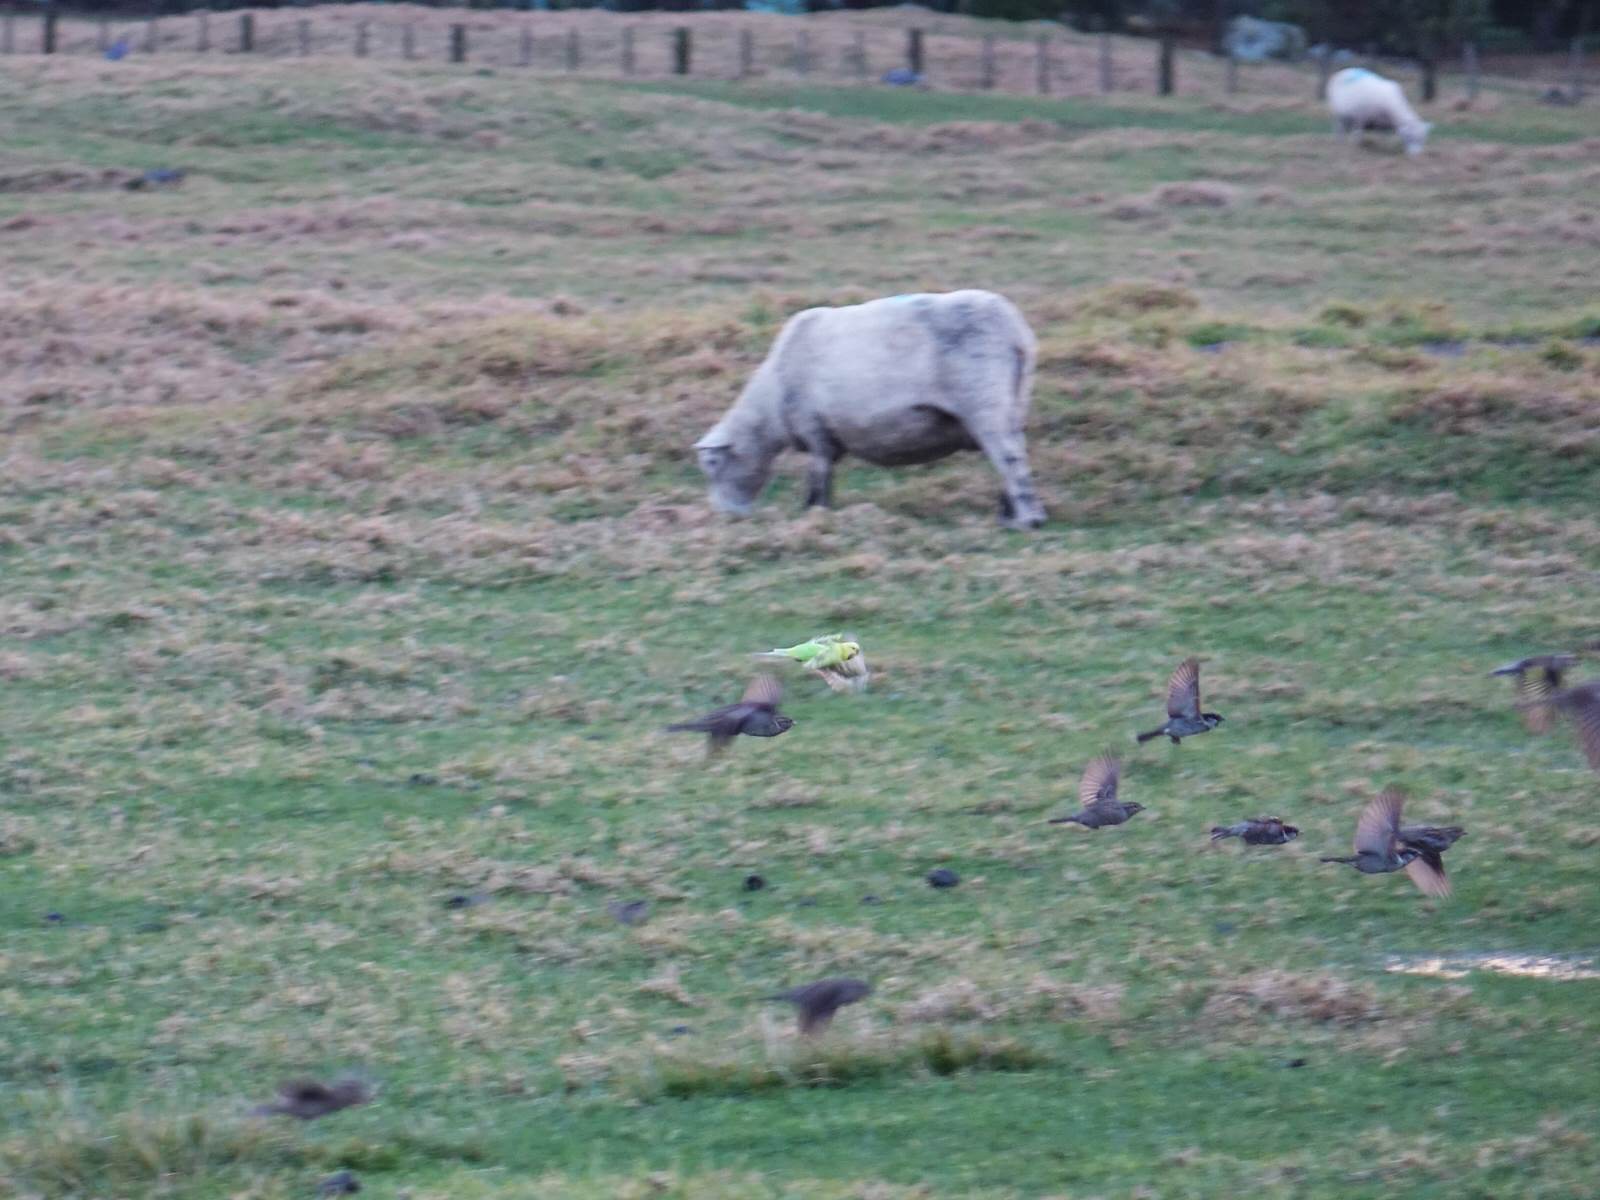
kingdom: Animalia
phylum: Chordata
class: Aves
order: Psittaciformes
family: Psittacidae
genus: Melopsittacus
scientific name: Melopsittacus undulatus
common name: Budgerigar
